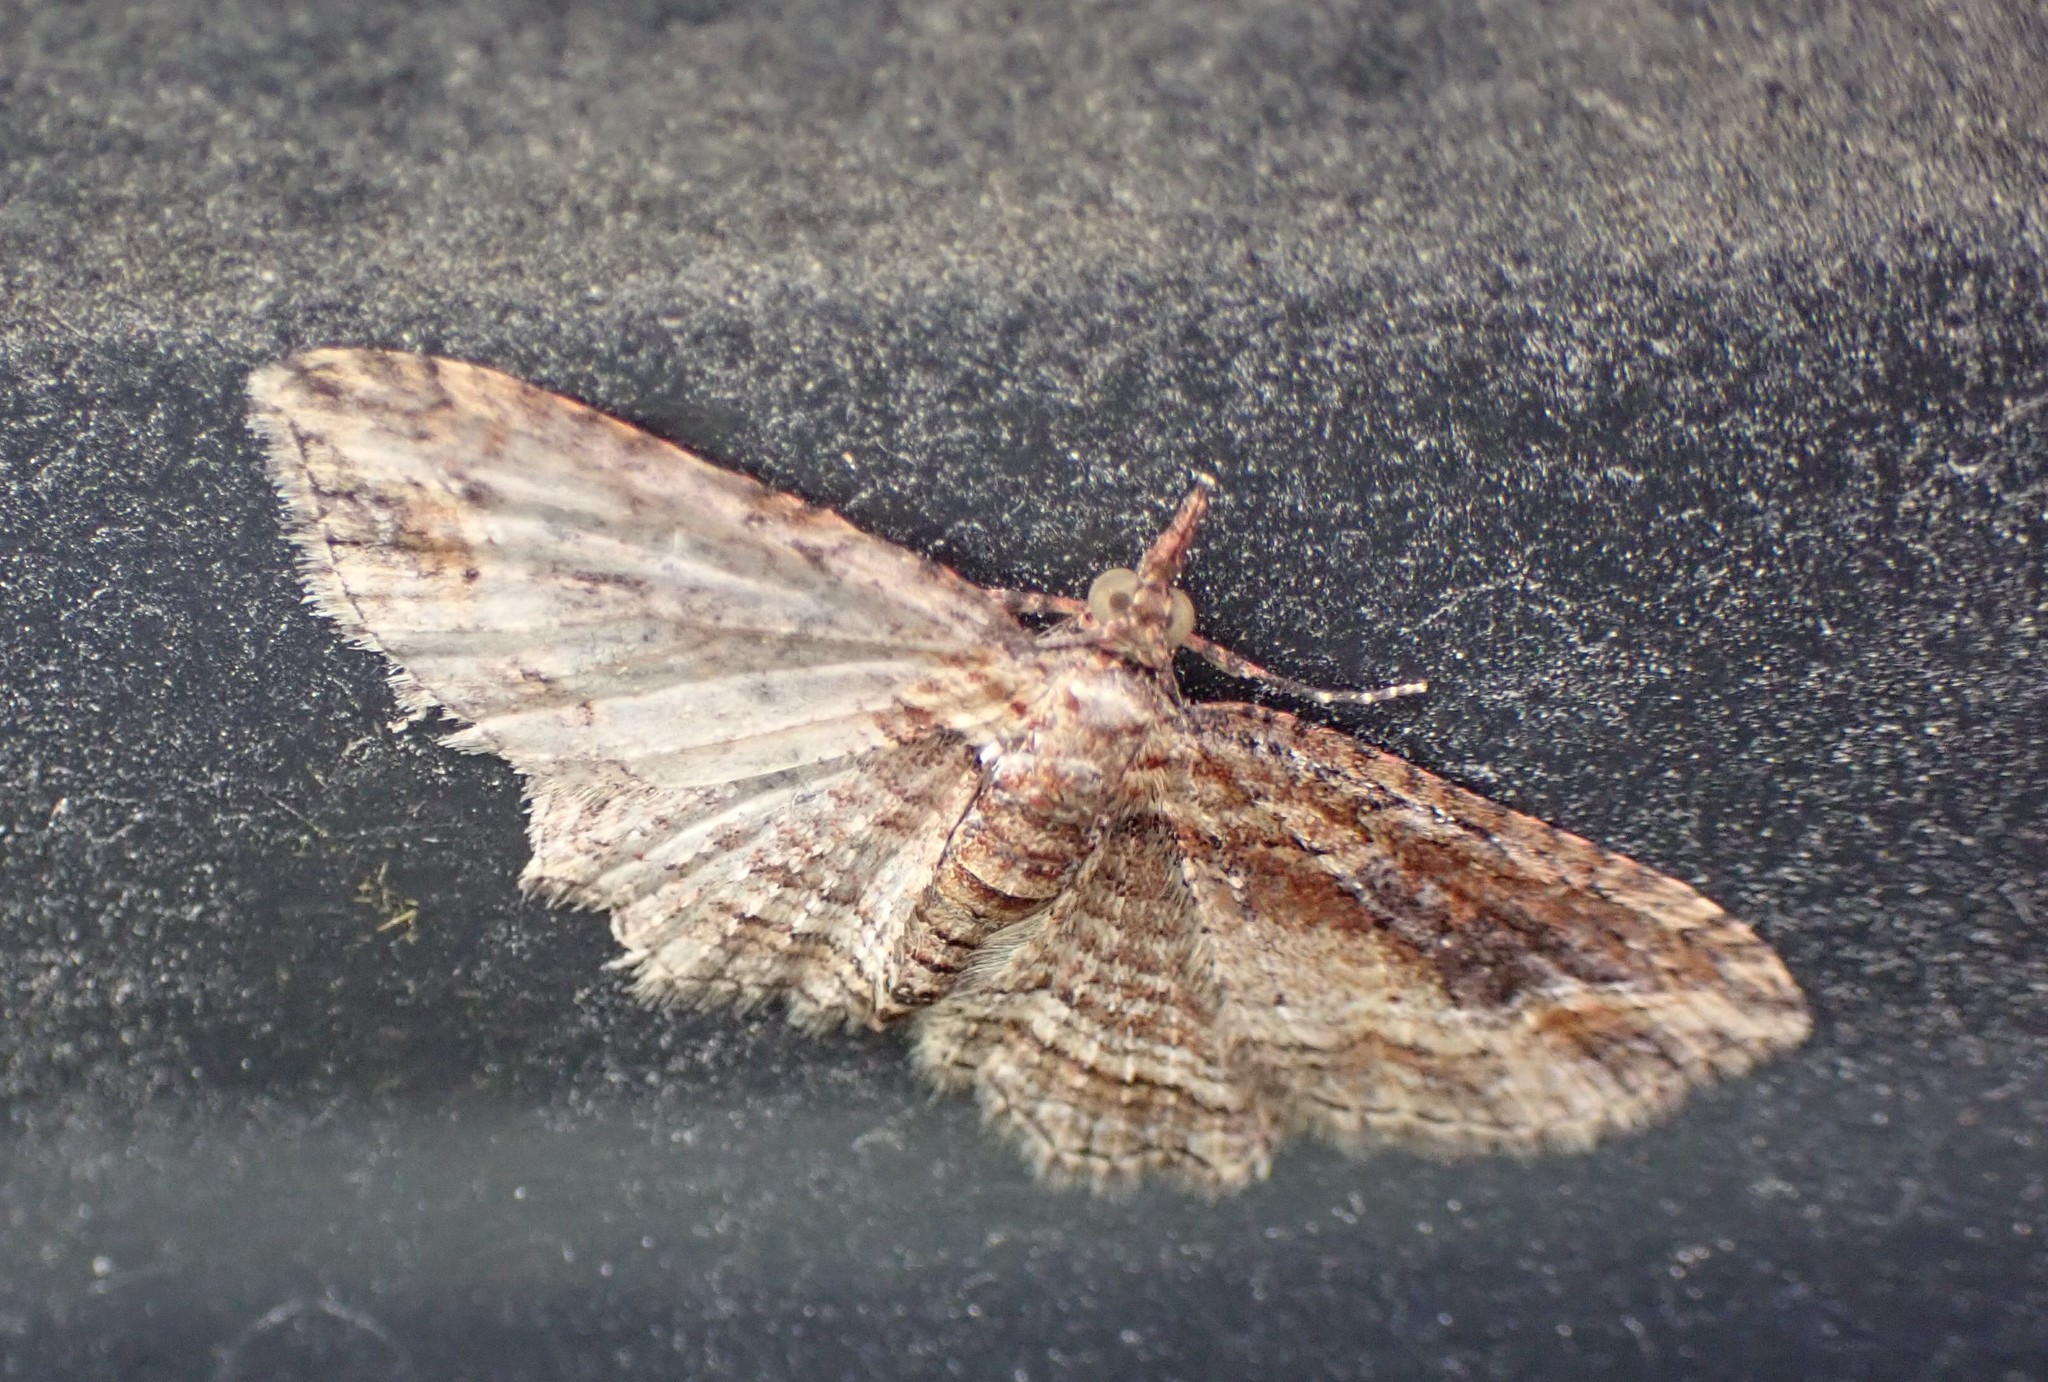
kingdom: Animalia
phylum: Arthropoda
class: Insecta
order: Lepidoptera
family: Geometridae
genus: Chloroclystis
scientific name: Chloroclystis filata
